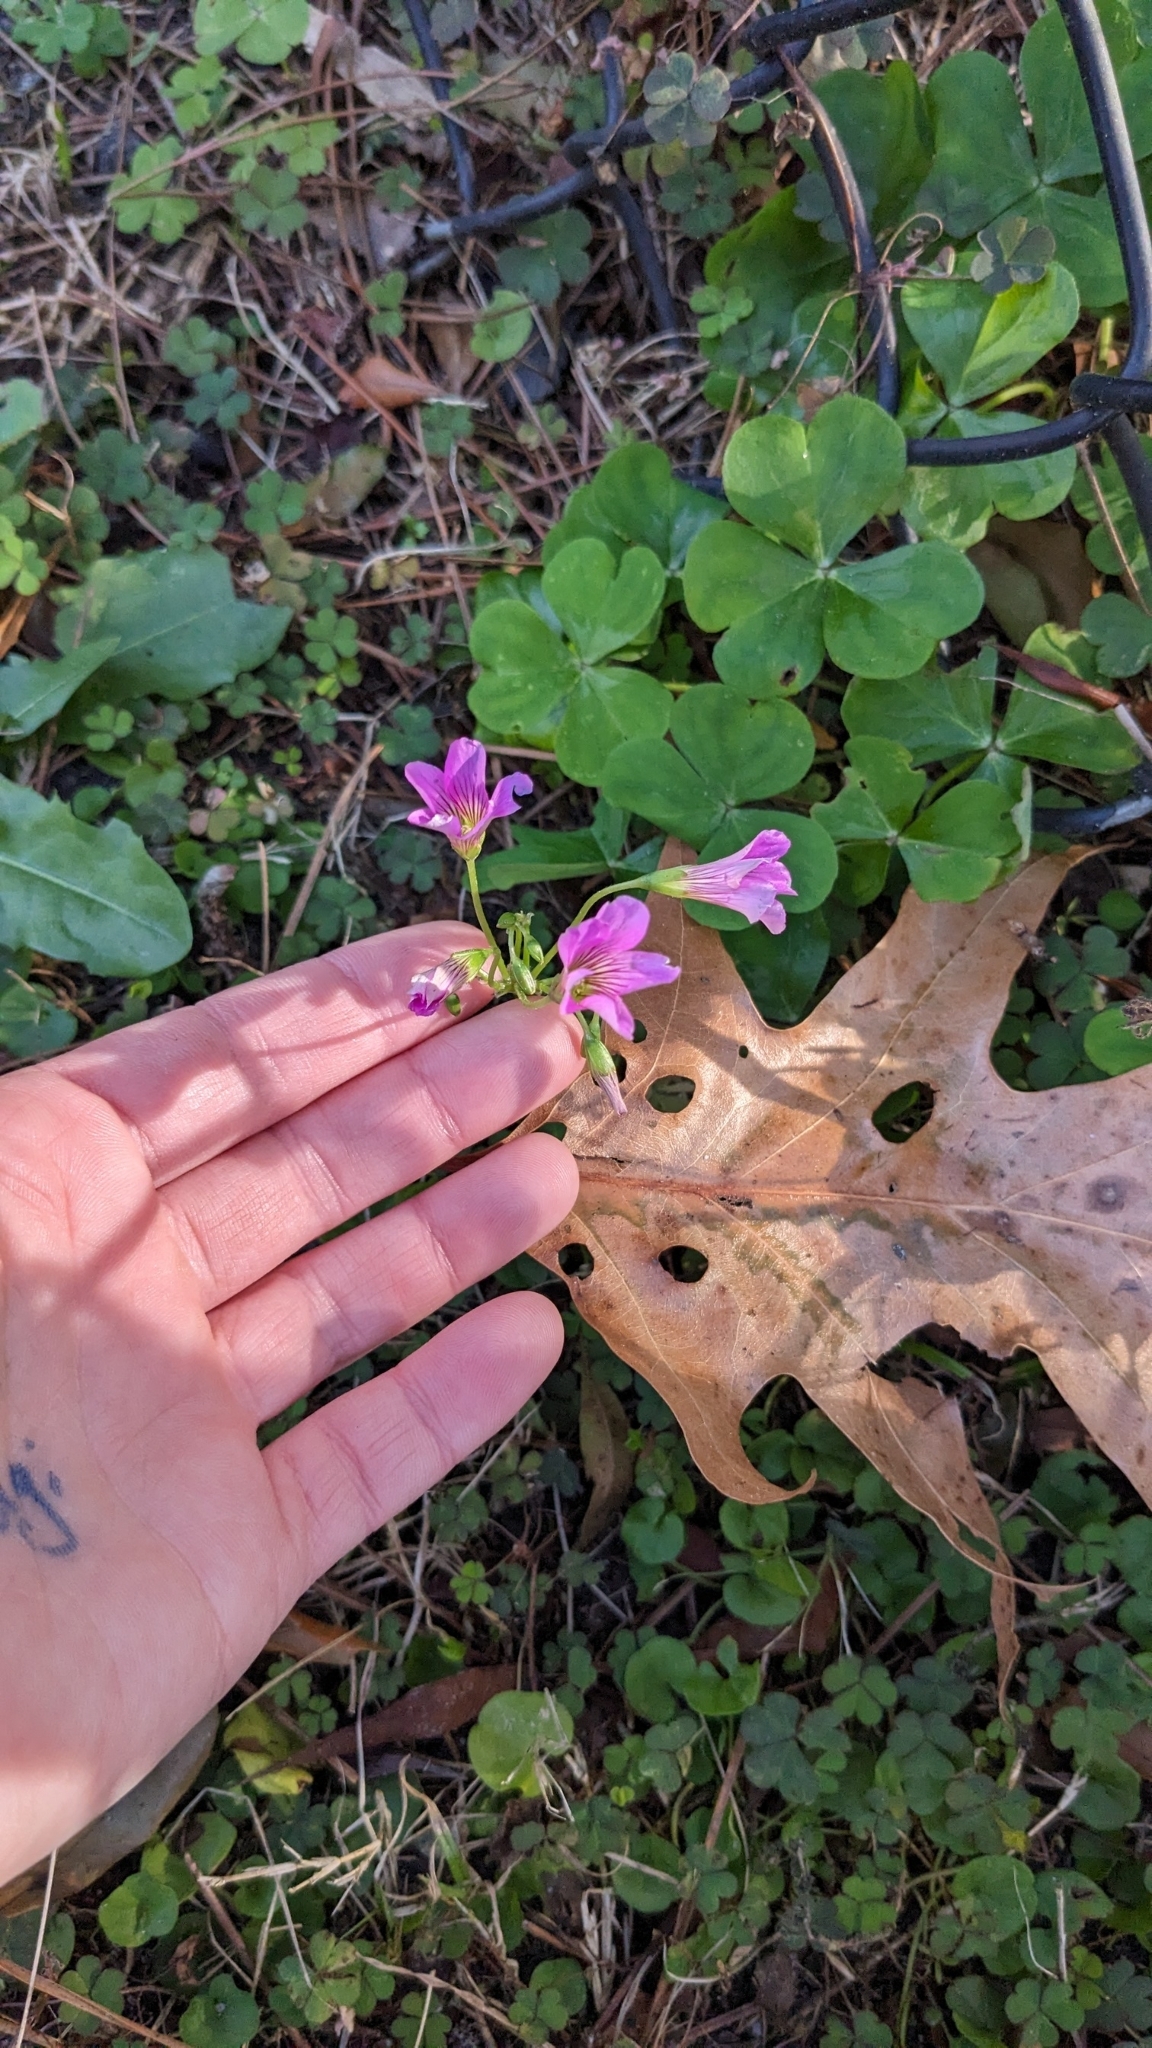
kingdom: Plantae
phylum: Tracheophyta
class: Magnoliopsida
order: Oxalidales
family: Oxalidaceae
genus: Oxalis
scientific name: Oxalis debilis
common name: Large-flowered pink-sorrel
